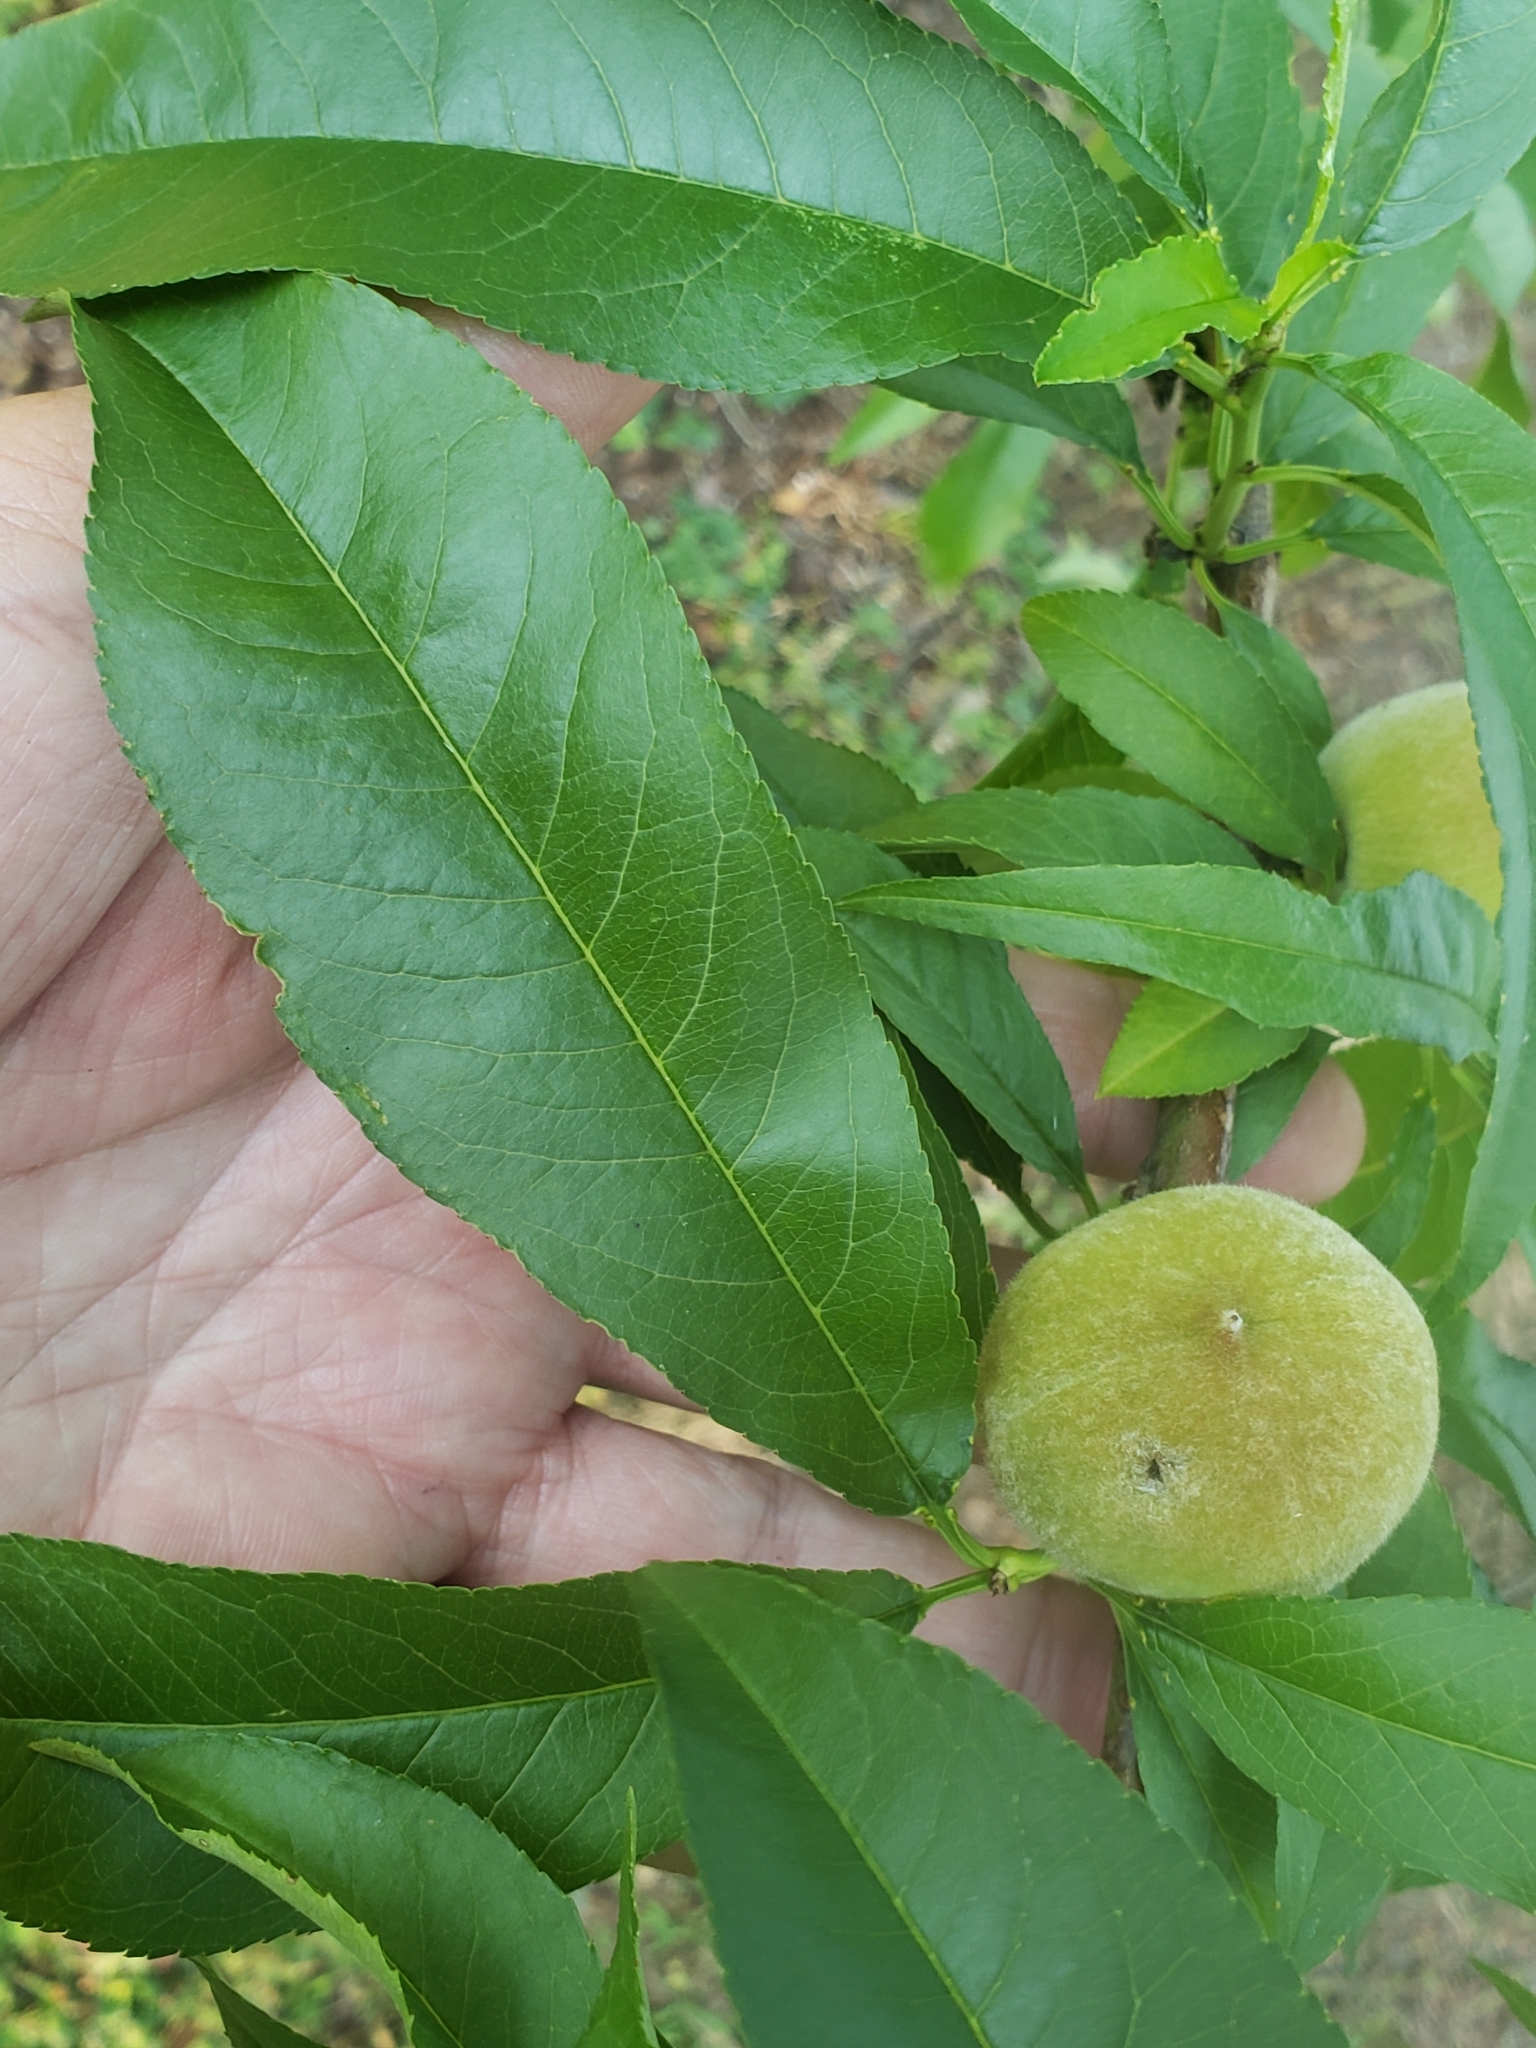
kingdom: Plantae
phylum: Tracheophyta
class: Magnoliopsida
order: Rosales
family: Rosaceae
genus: Prunus
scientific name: Prunus persica
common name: Peach
